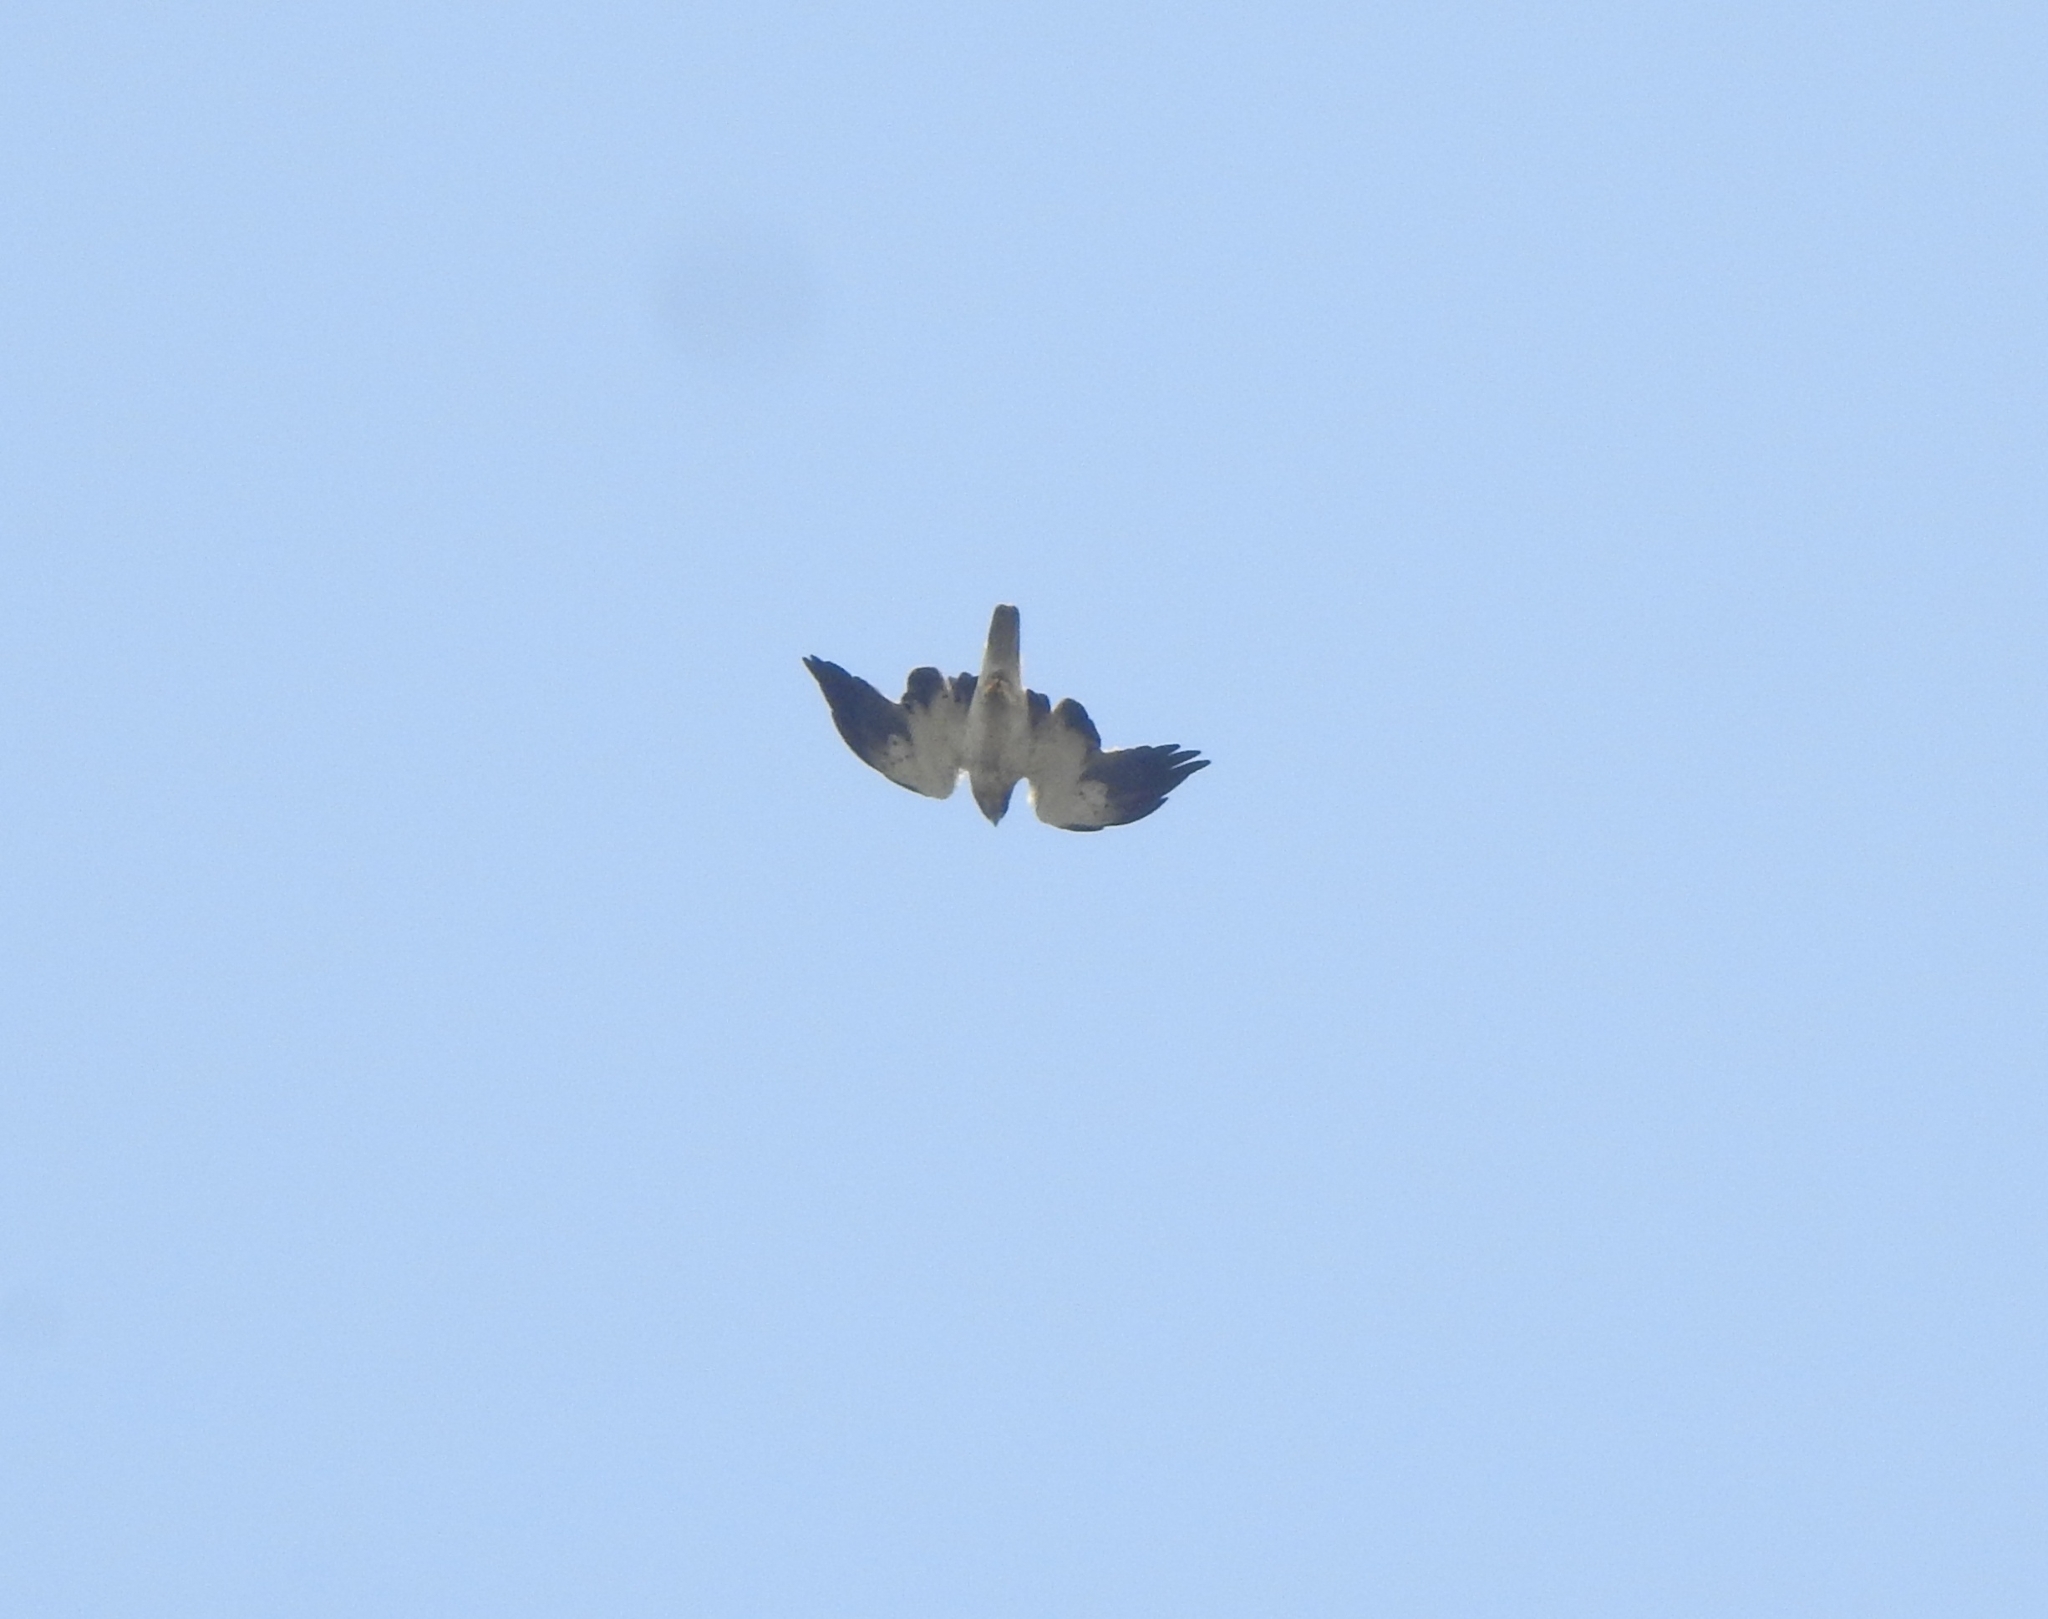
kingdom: Animalia
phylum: Chordata
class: Aves
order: Accipitriformes
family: Accipitridae
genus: Hieraaetus
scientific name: Hieraaetus pennatus
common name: Booted eagle
